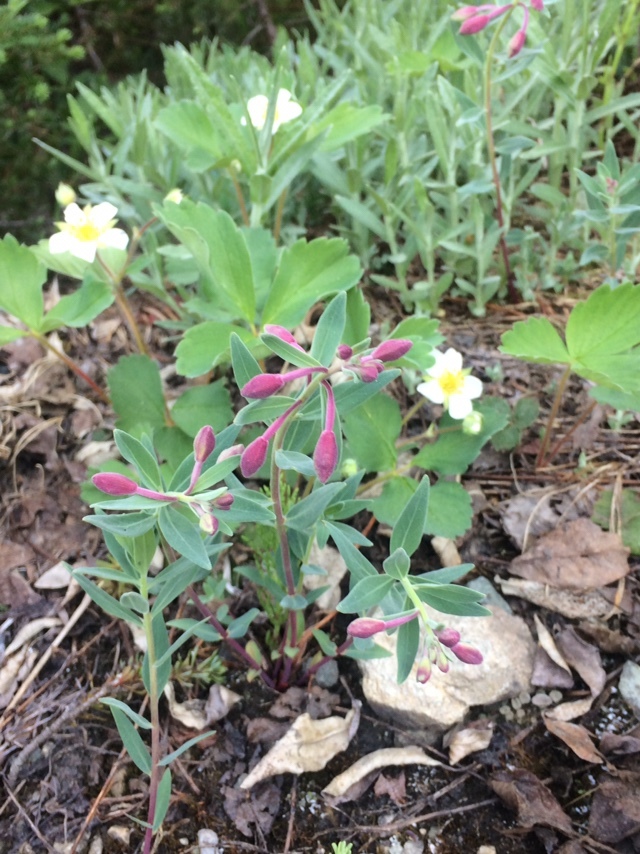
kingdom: Plantae
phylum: Tracheophyta
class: Magnoliopsida
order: Myrtales
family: Onagraceae
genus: Chamaenerion
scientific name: Chamaenerion latifolium
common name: Dwarf fireweed
